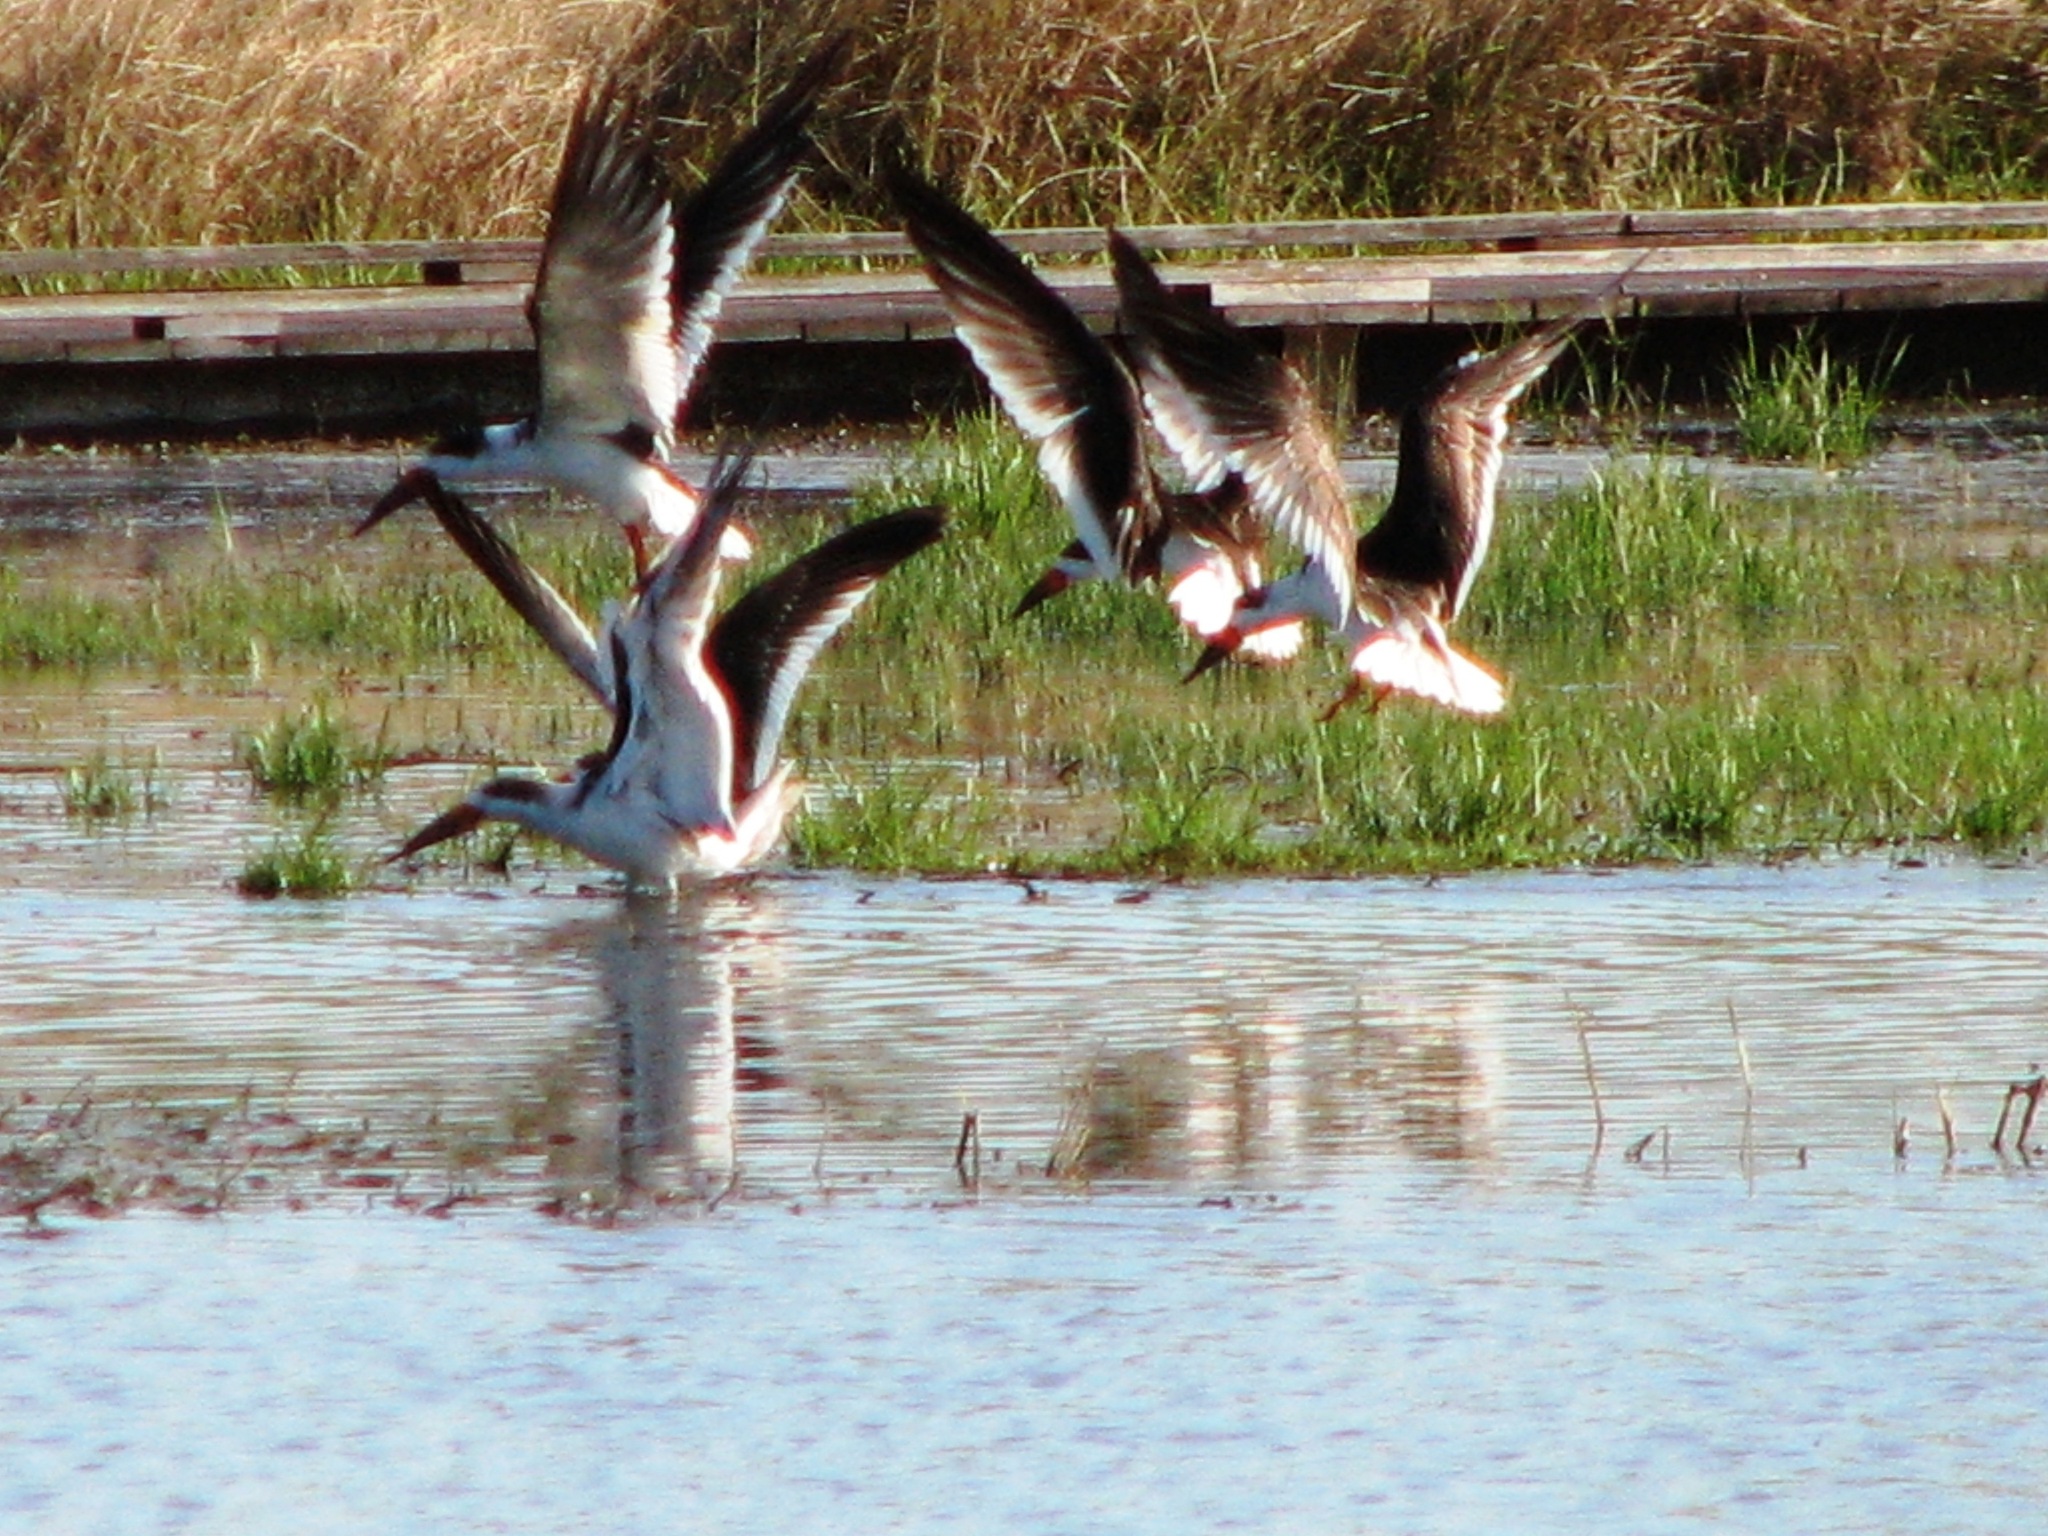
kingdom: Animalia
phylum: Chordata
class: Aves
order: Charadriiformes
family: Laridae
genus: Rynchops
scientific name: Rynchops niger
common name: Black skimmer
